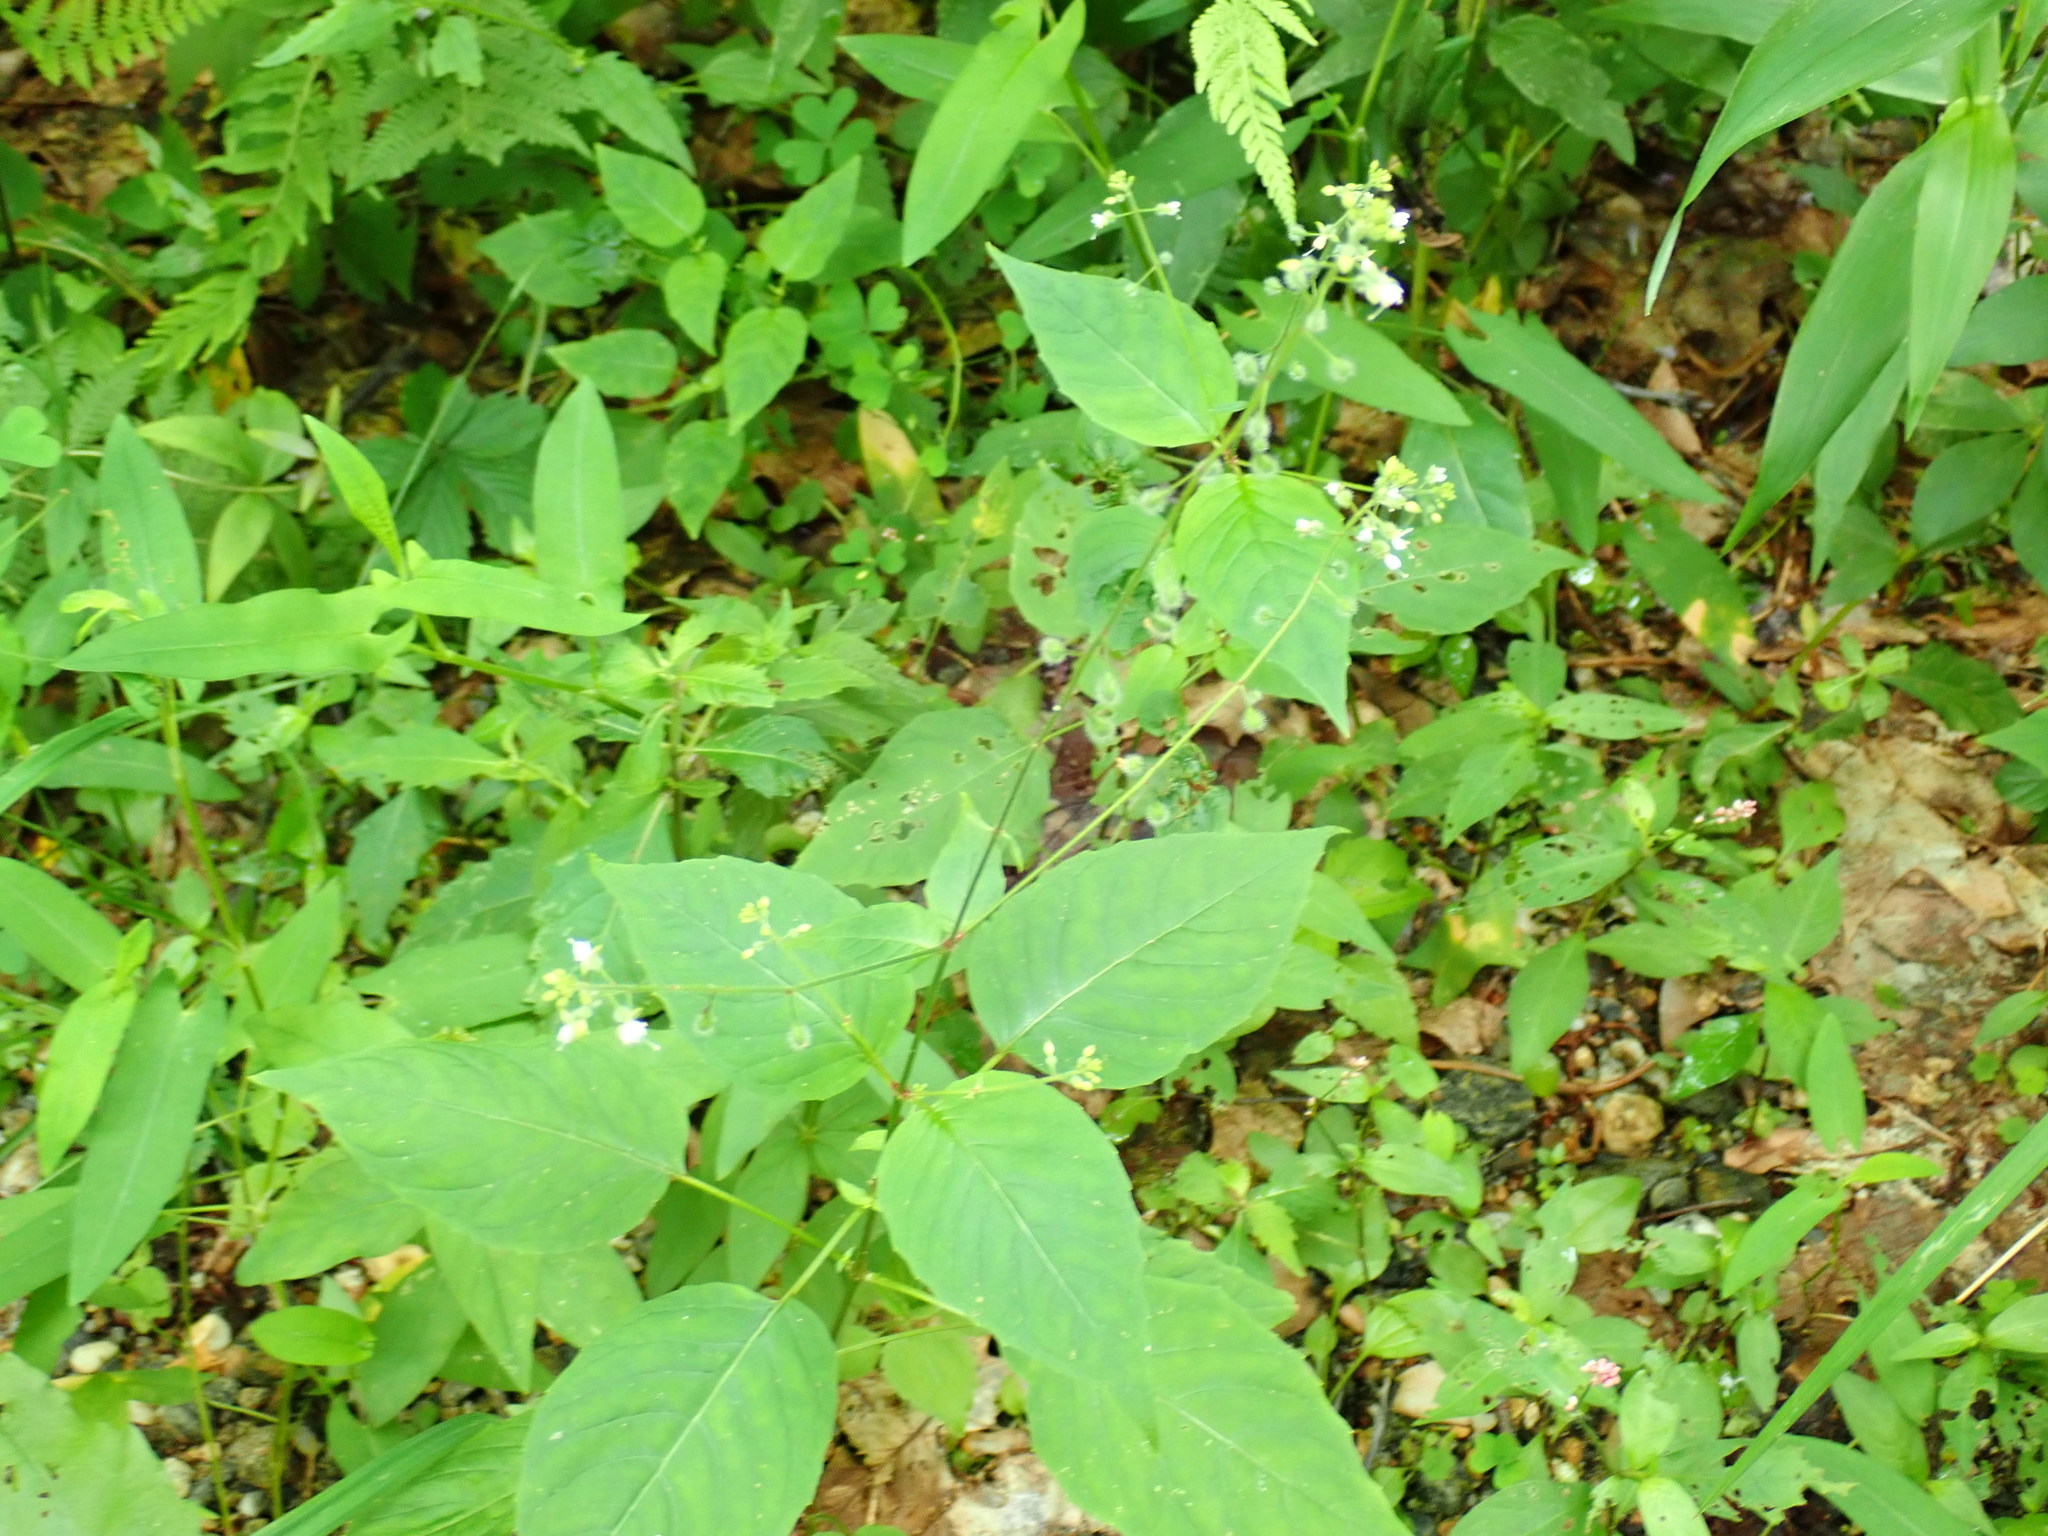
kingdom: Plantae
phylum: Tracheophyta
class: Magnoliopsida
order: Myrtales
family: Onagraceae
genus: Circaea
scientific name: Circaea canadensis
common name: Broad-leaved enchanter's nightshade
